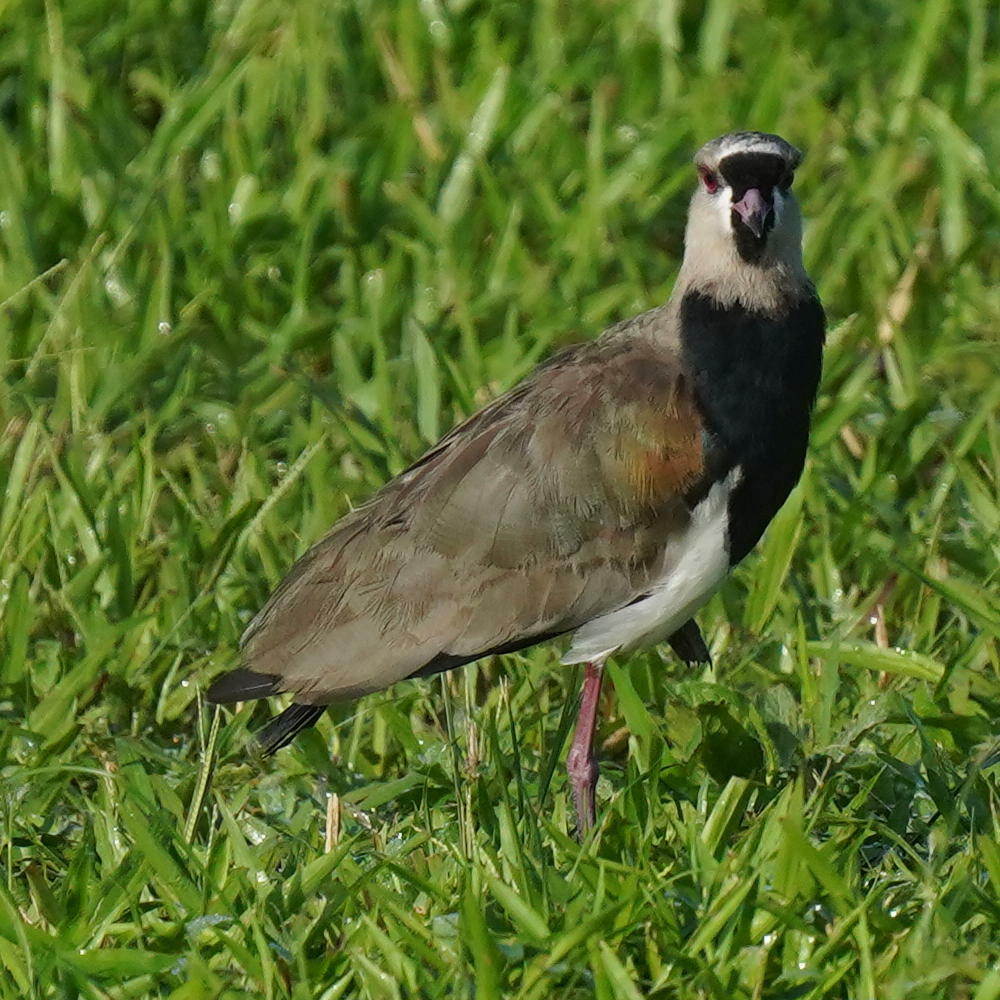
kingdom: Animalia
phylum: Chordata
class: Aves
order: Charadriiformes
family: Charadriidae
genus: Vanellus
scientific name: Vanellus chilensis
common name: Southern lapwing
